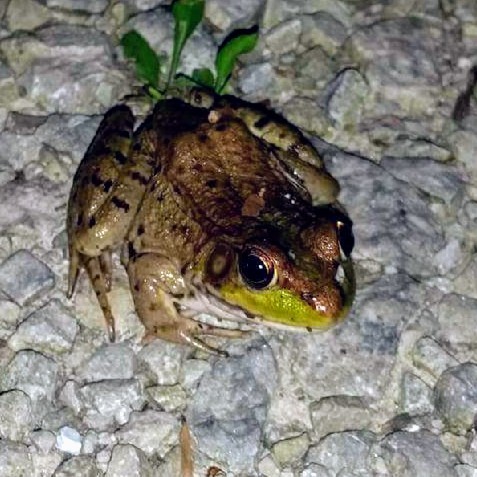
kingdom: Animalia
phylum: Chordata
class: Amphibia
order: Anura
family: Ranidae
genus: Lithobates
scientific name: Lithobates clamitans
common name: Green frog
